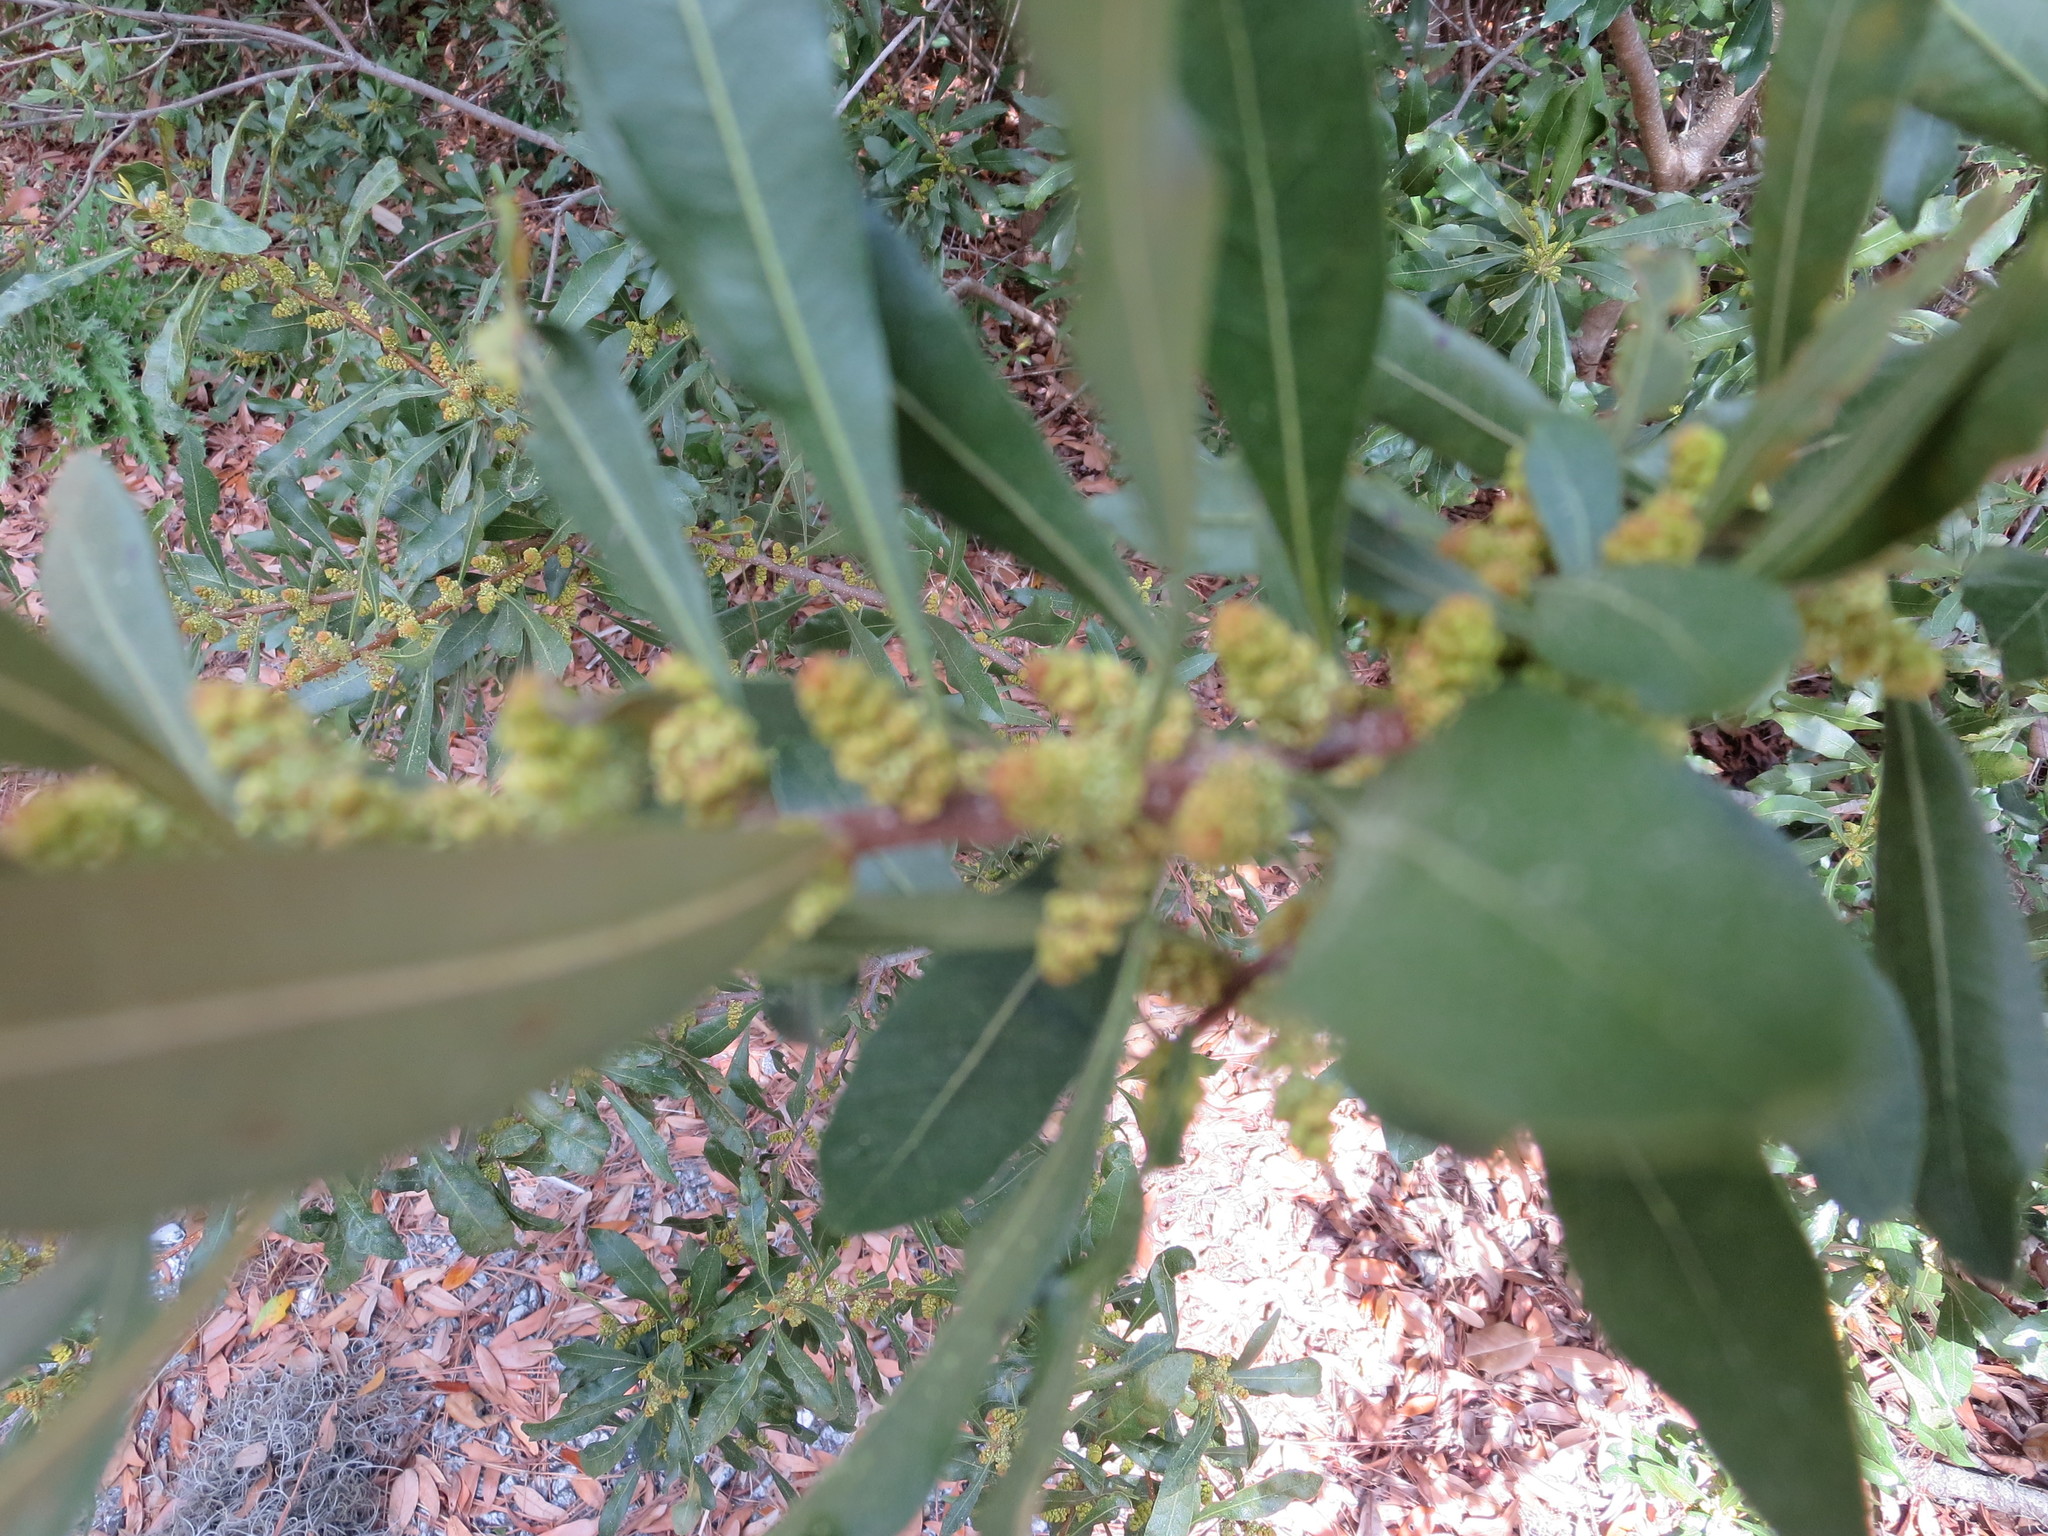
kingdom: Plantae
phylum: Tracheophyta
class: Magnoliopsida
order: Fagales
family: Myricaceae
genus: Morella
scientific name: Morella cerifera
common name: Wax myrtle
